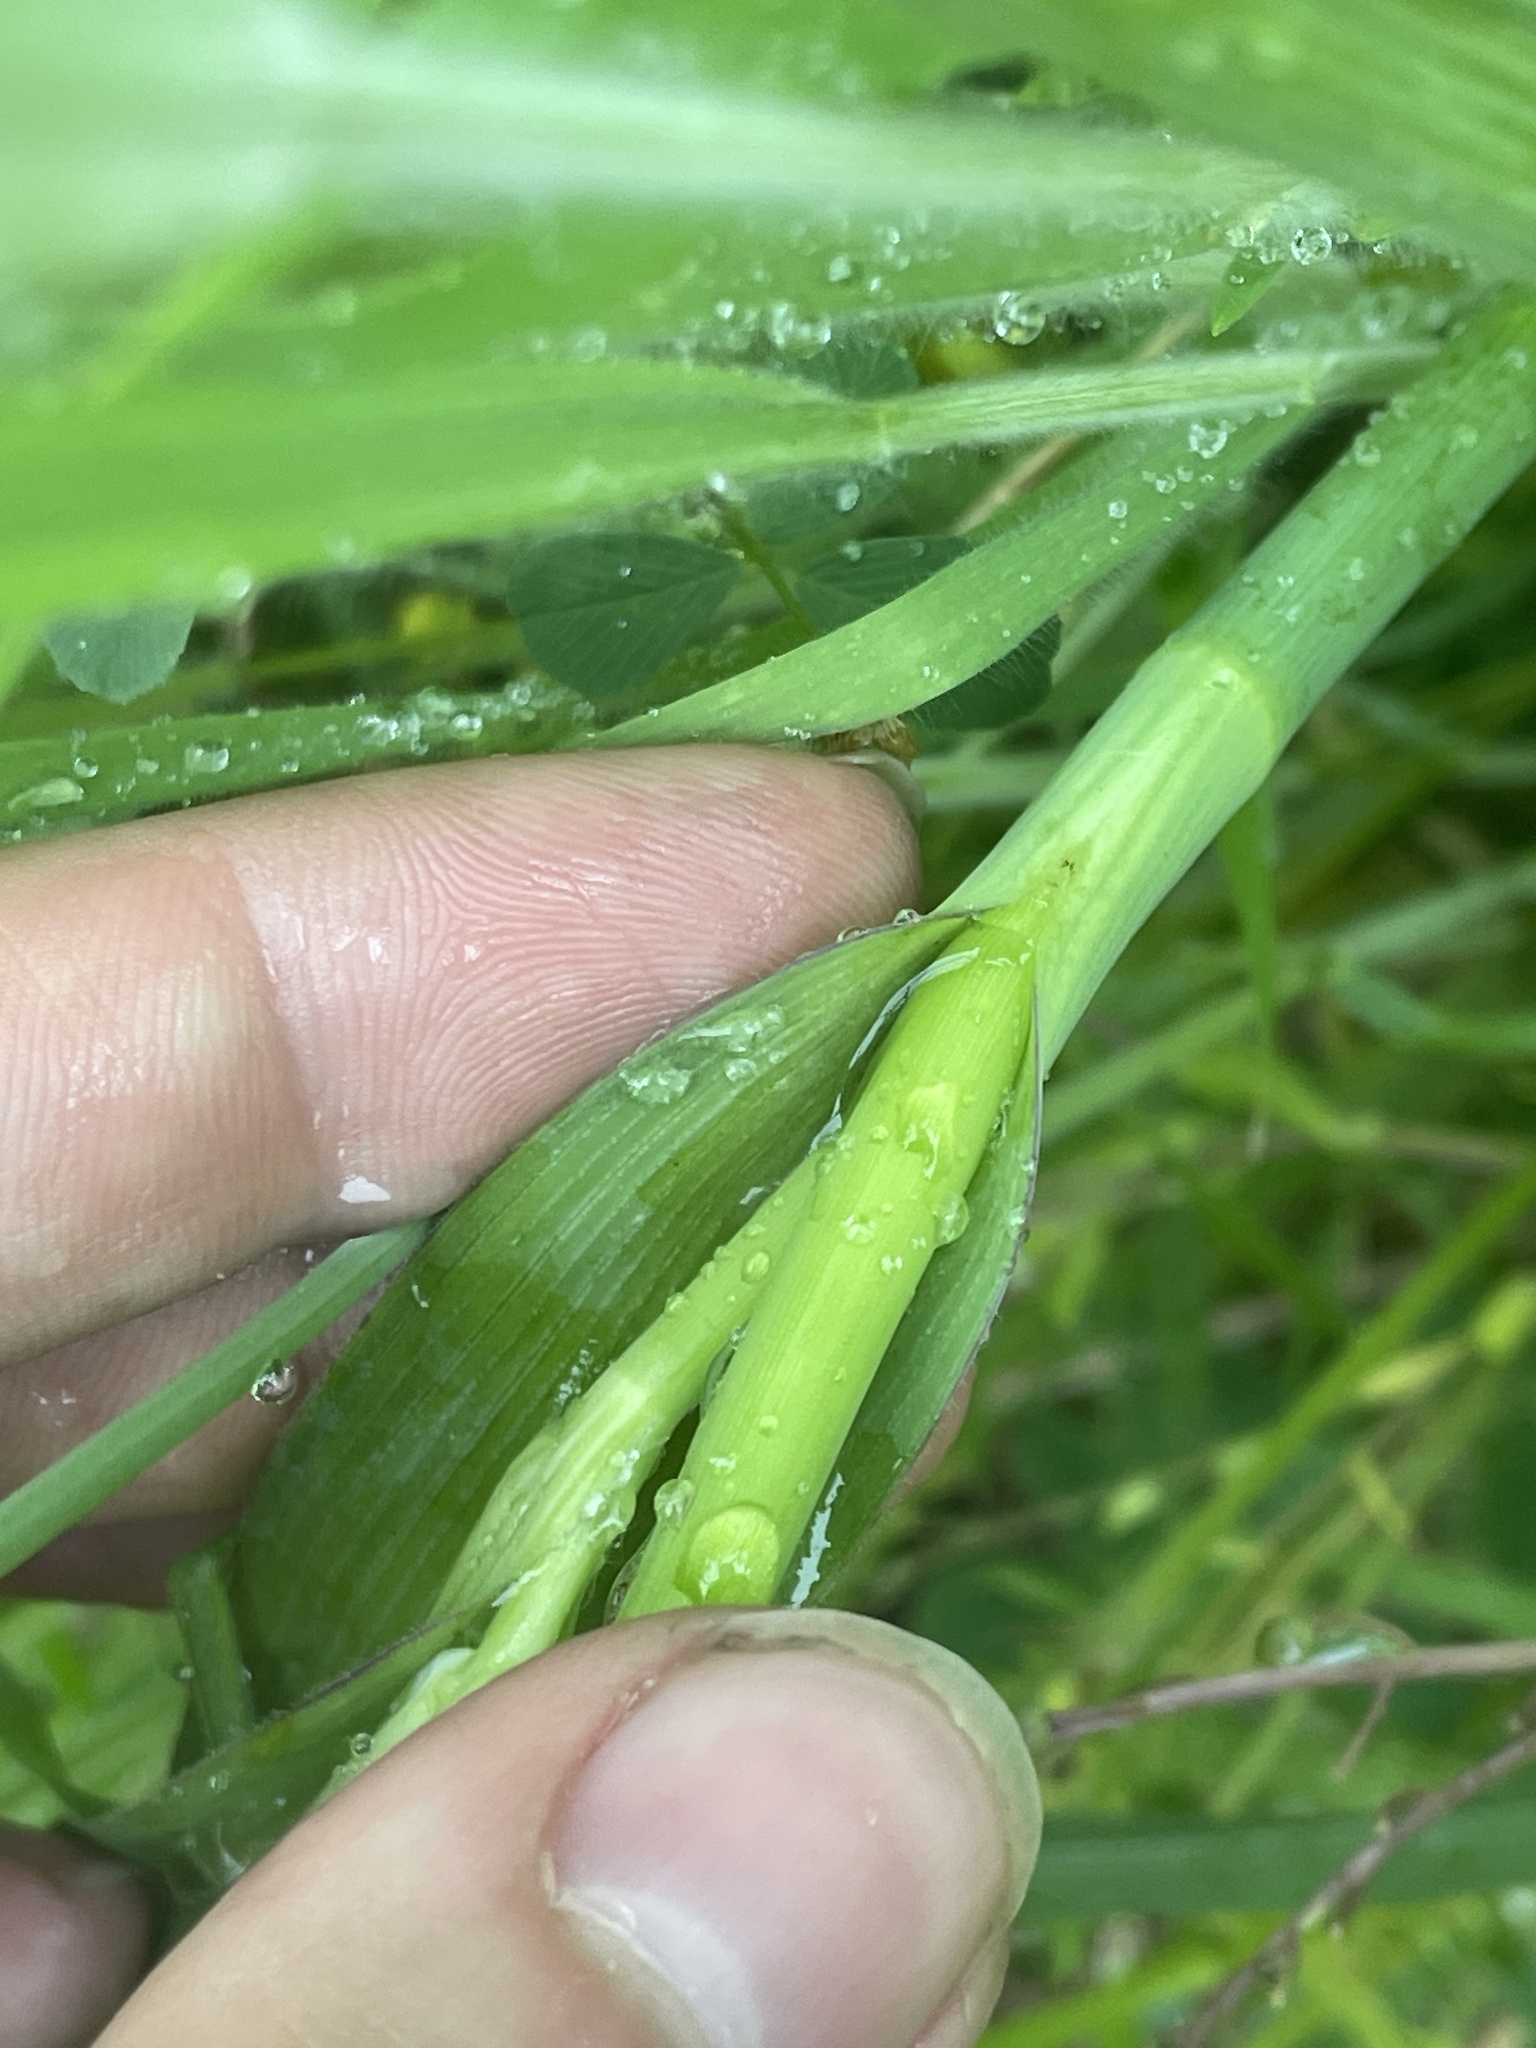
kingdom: Plantae
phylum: Tracheophyta
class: Liliopsida
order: Commelinales
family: Commelinaceae
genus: Tradescantia
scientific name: Tradescantia ohiensis
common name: Ohio spiderwort
